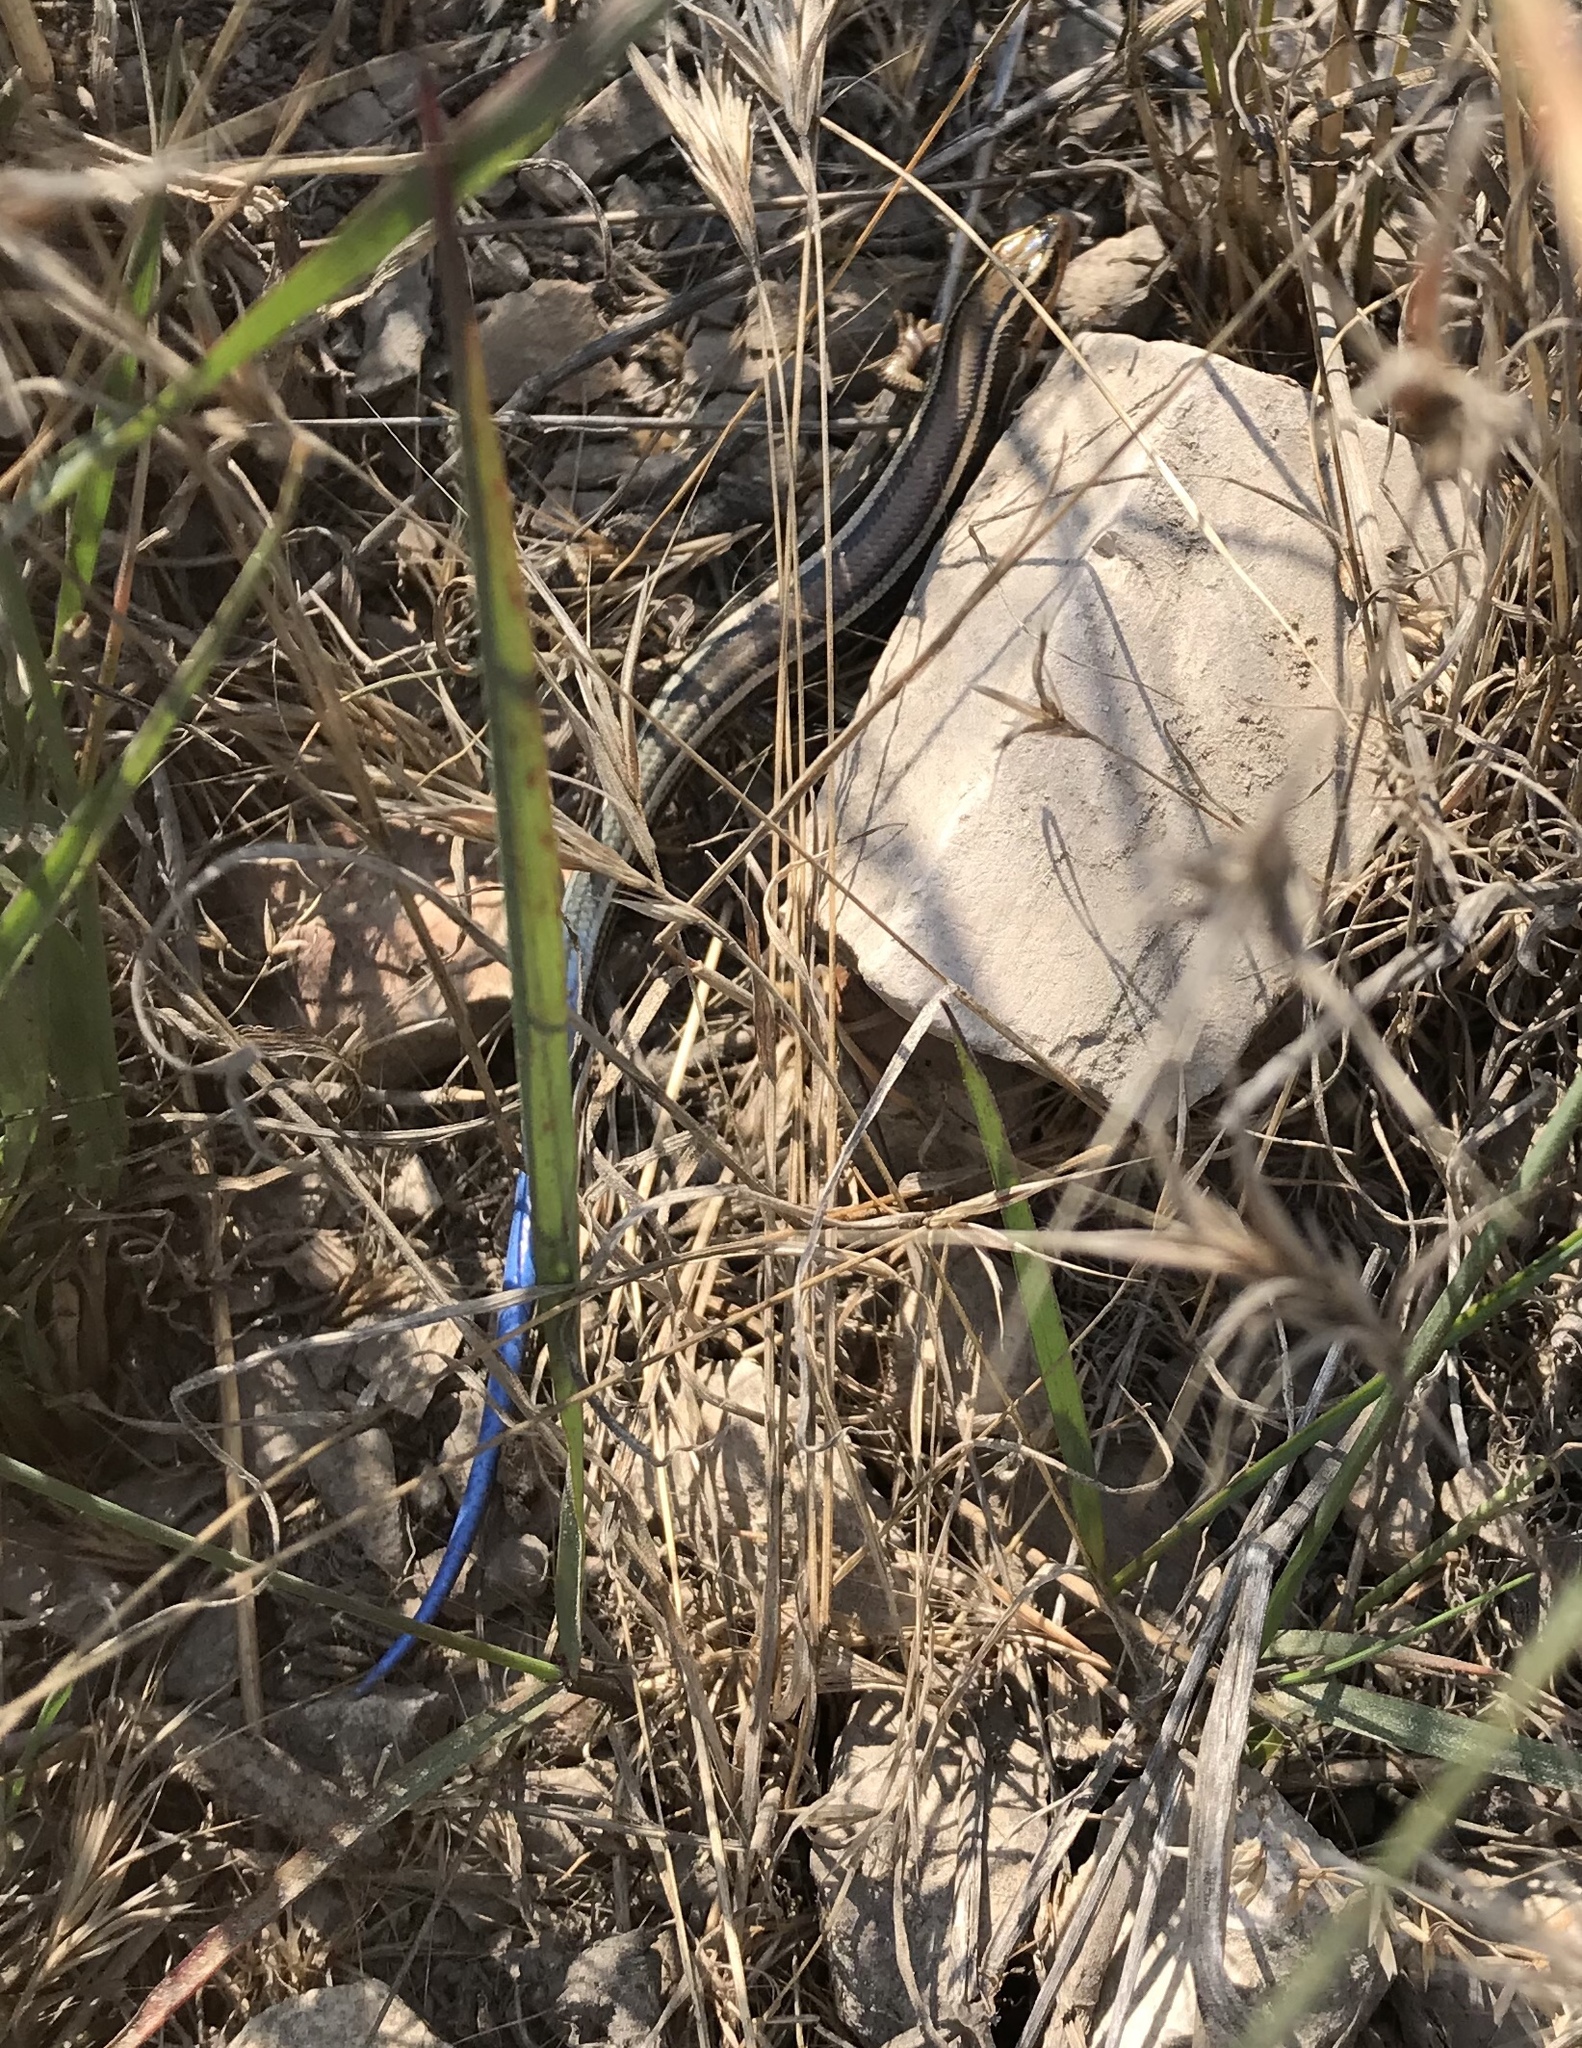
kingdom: Animalia
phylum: Chordata
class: Squamata
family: Scincidae
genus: Plestiodon
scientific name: Plestiodon skiltonianus
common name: Coronado island skink [interparietalis]
